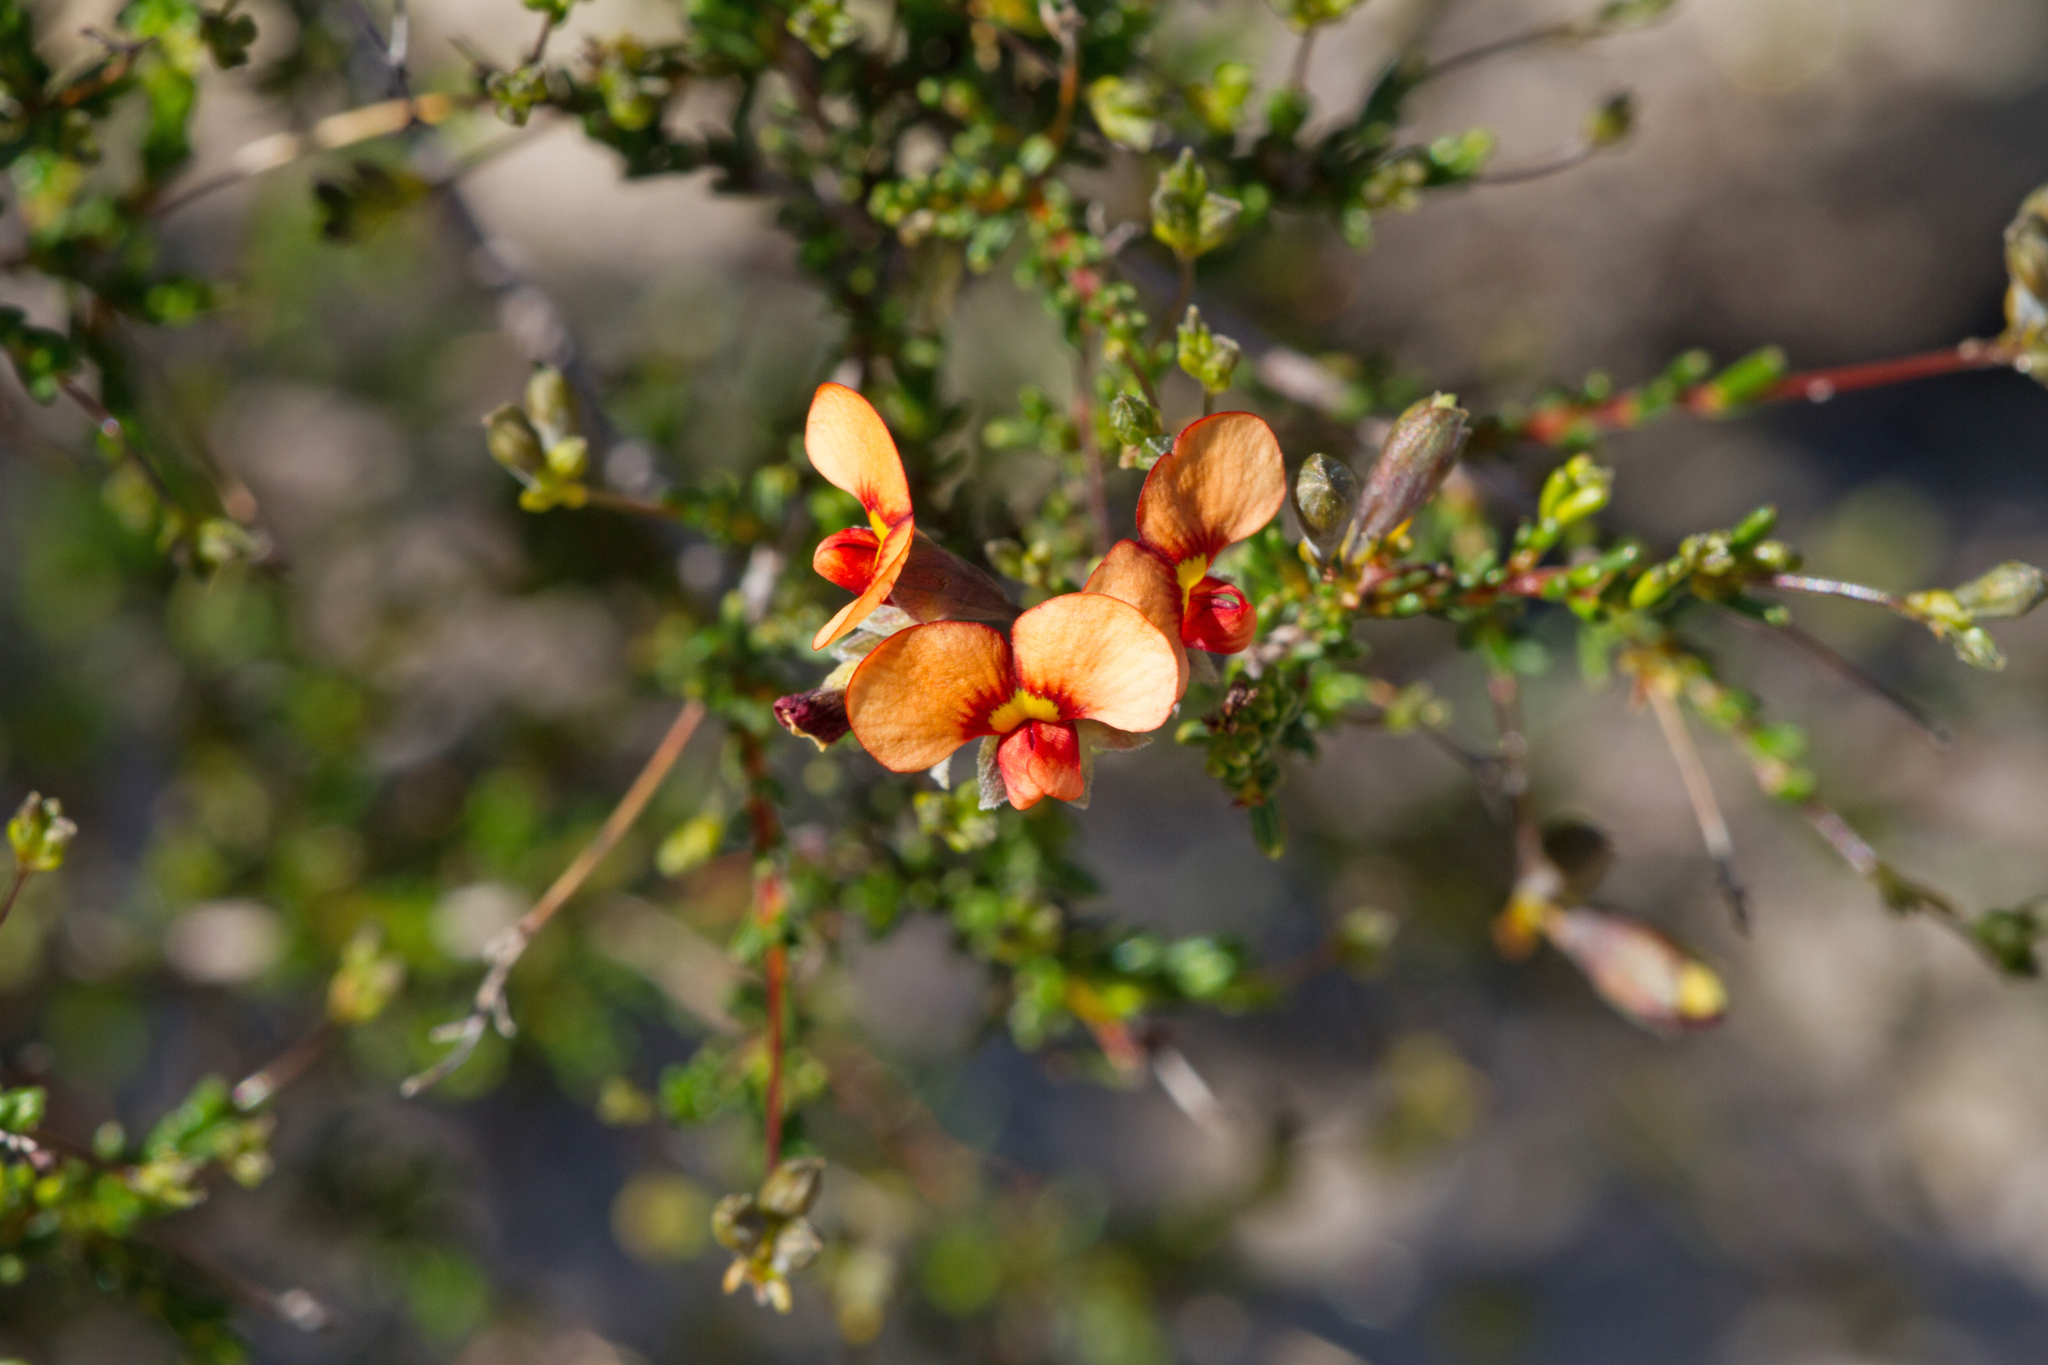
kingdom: Plantae
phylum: Tracheophyta
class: Magnoliopsida
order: Fabales
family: Fabaceae
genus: Dillwynia
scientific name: Dillwynia hispida
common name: Red parrot-pea
